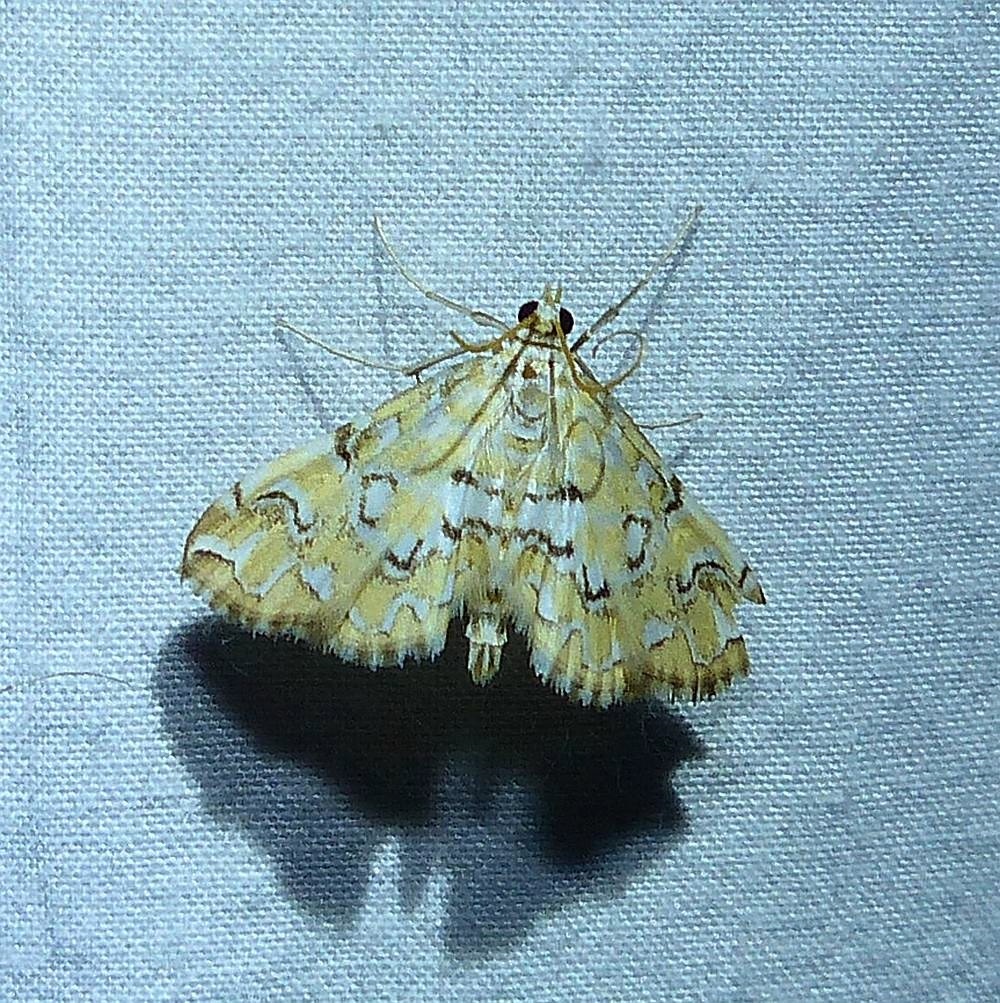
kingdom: Animalia
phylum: Arthropoda
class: Insecta
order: Lepidoptera
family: Crambidae
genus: Elophila
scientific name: Elophila icciusalis
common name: Pondside pyralid moth
